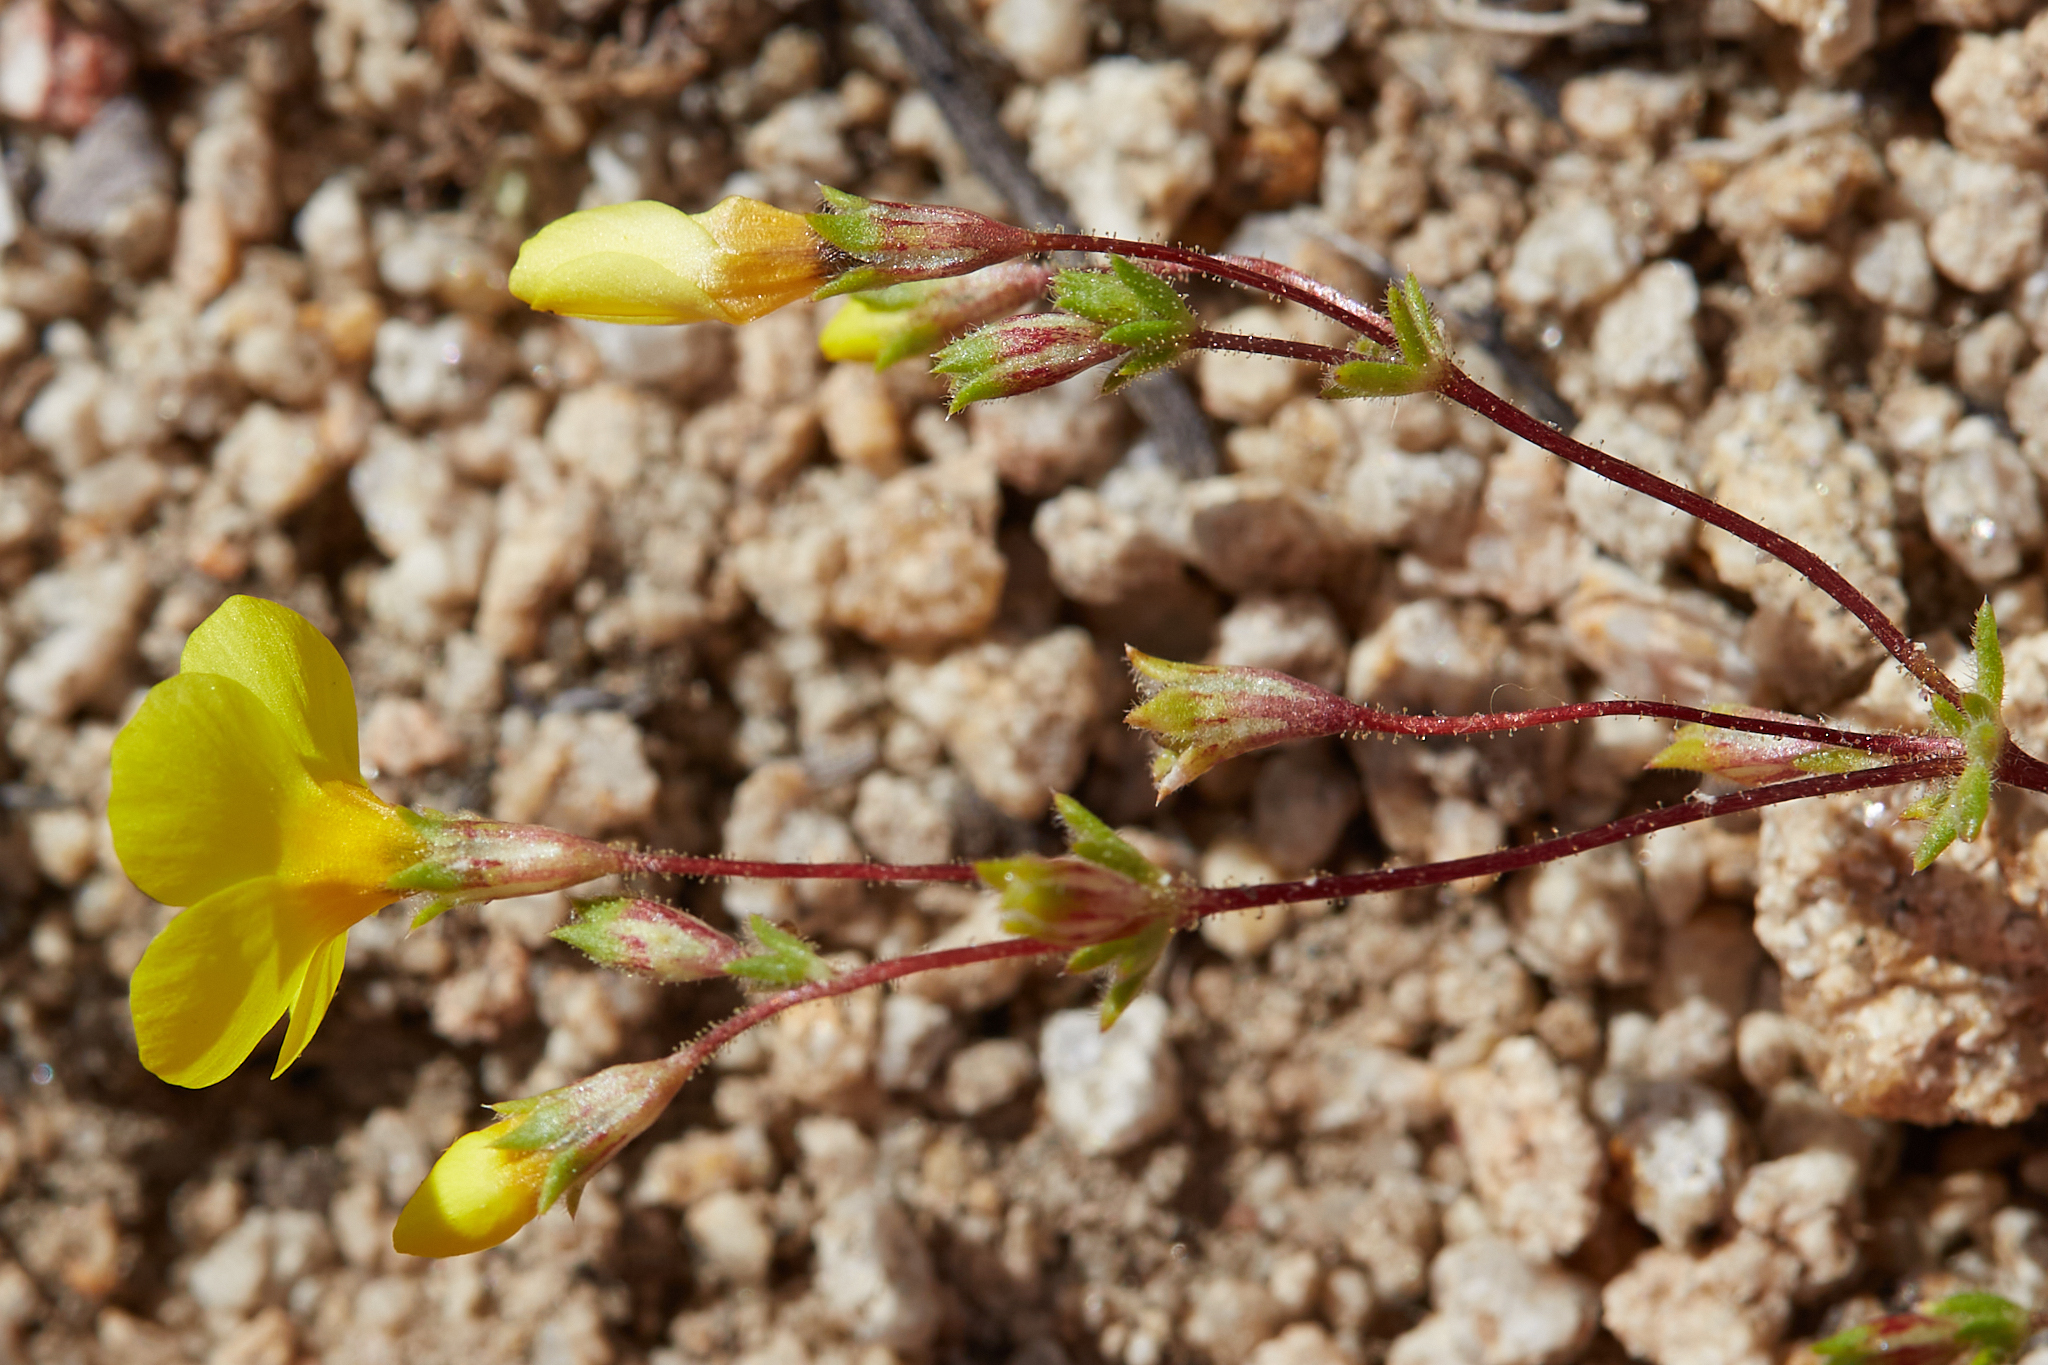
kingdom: Plantae
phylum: Tracheophyta
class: Magnoliopsida
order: Ericales
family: Polemoniaceae
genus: Leptosiphon
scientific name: Leptosiphon chrysanthus
